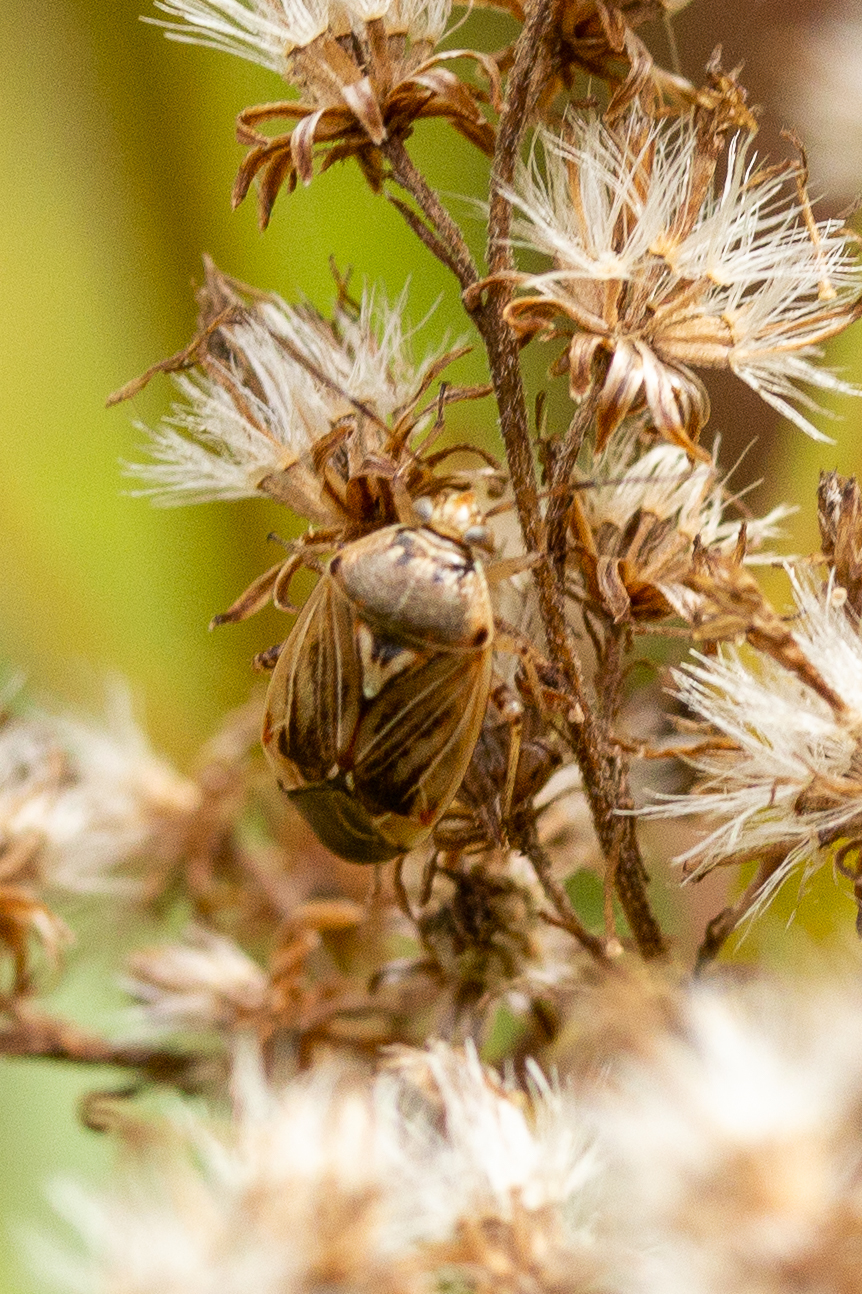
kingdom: Animalia
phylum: Arthropoda
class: Insecta
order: Hemiptera
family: Miridae
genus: Lygus
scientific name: Lygus lineolaris
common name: North american tarnished plant bug
